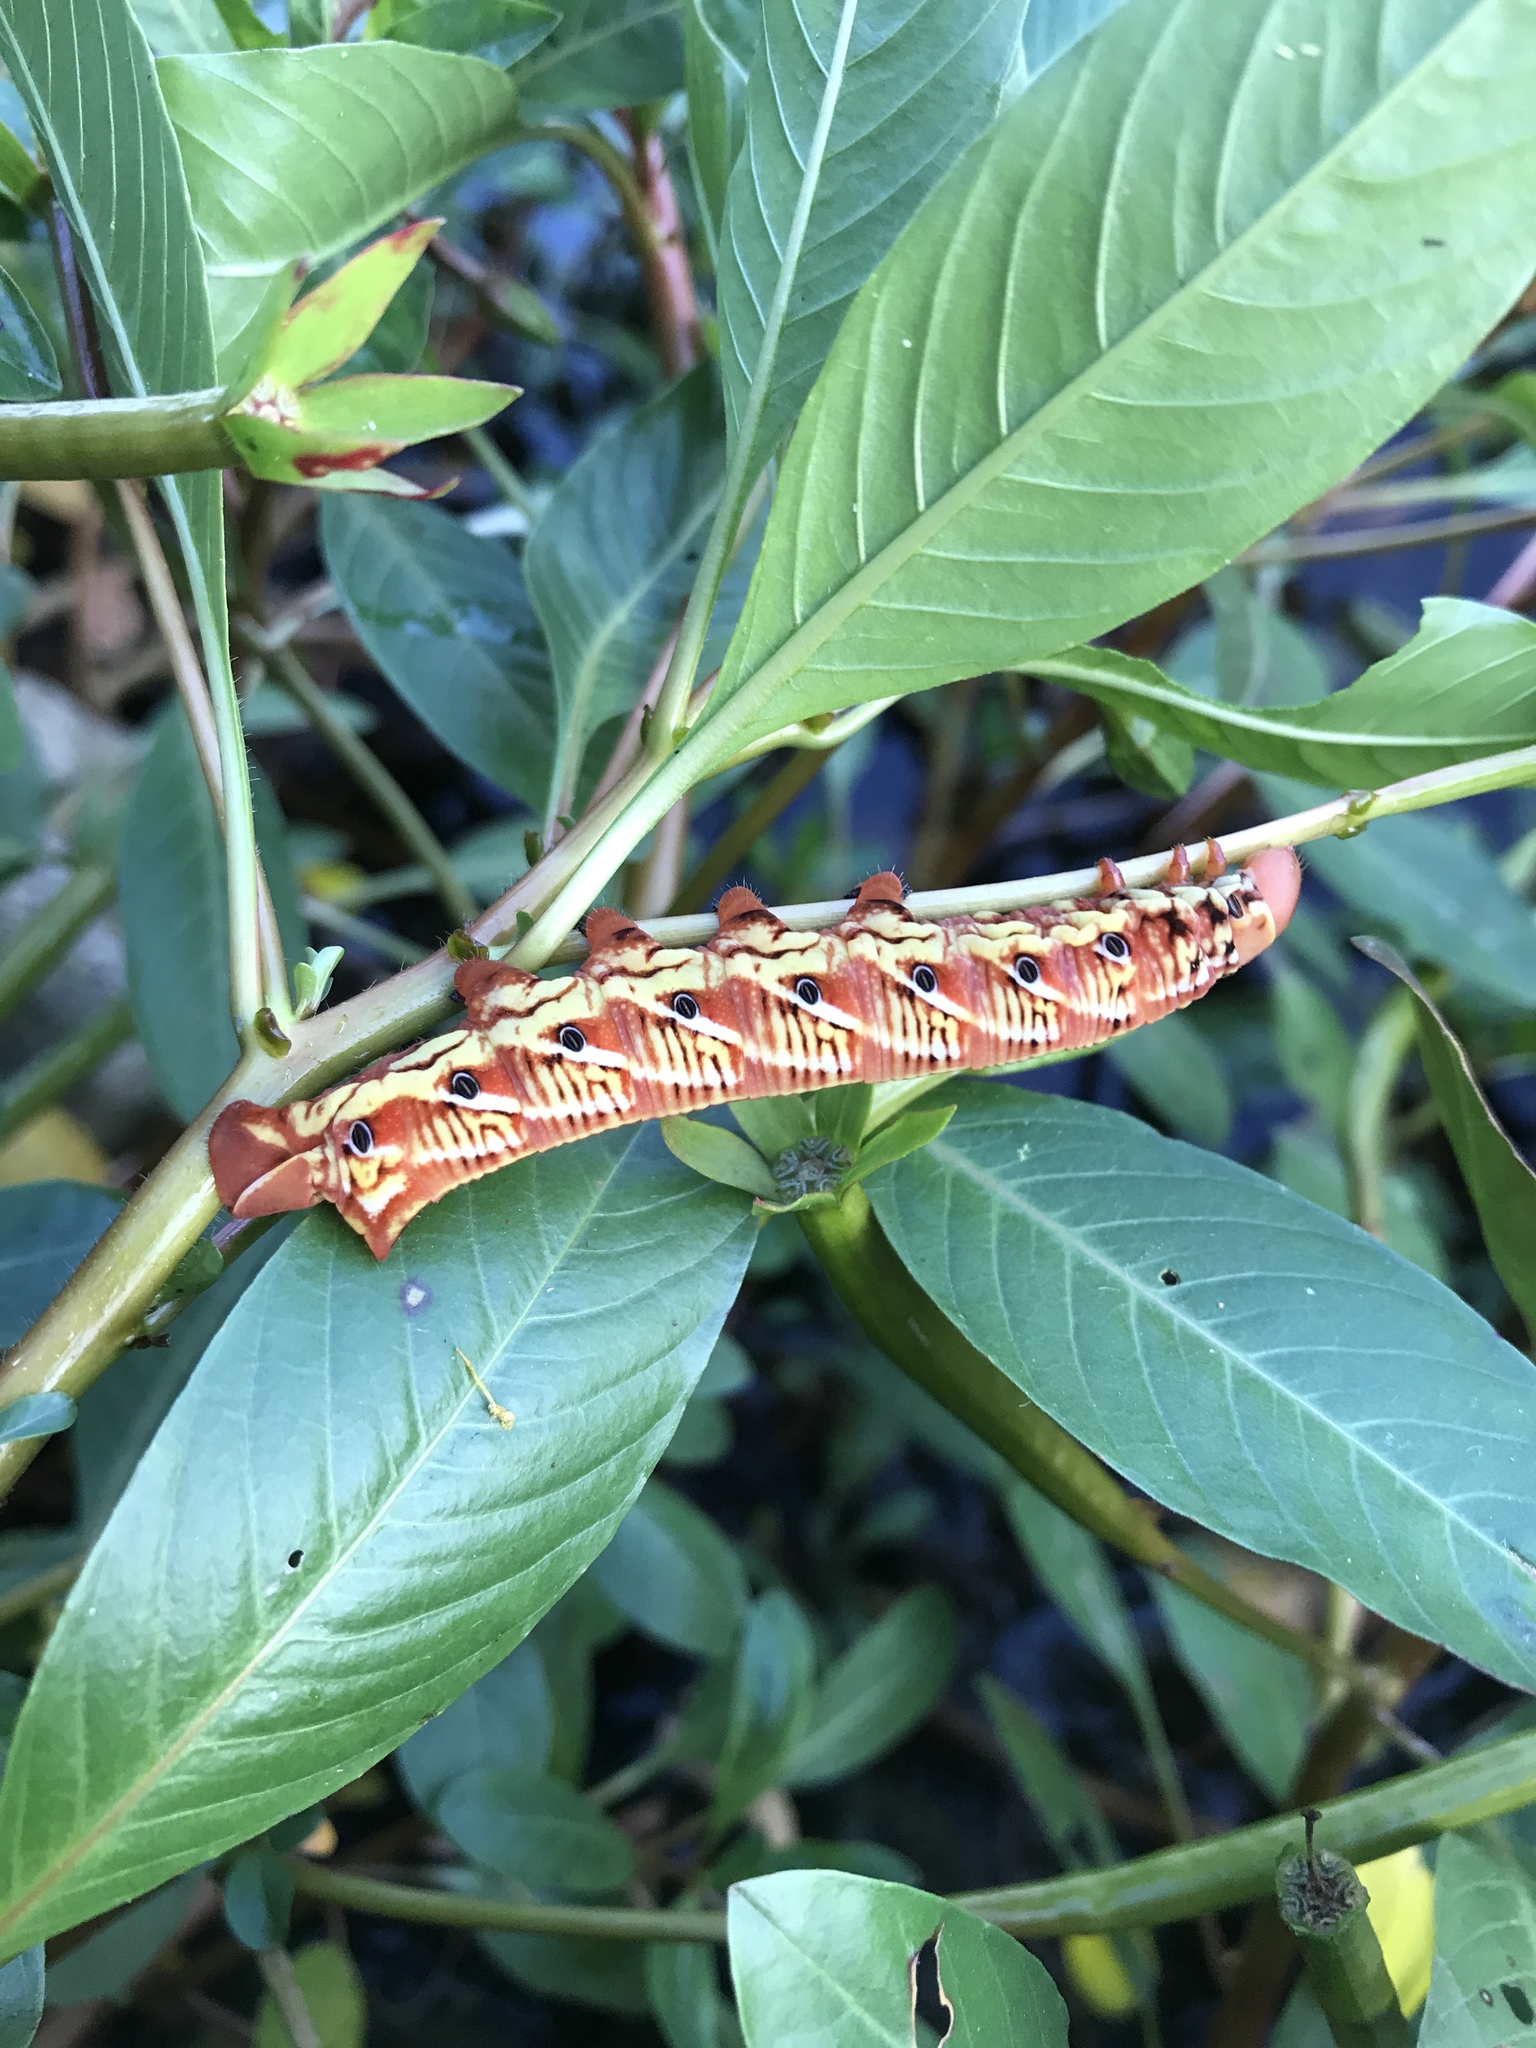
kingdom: Animalia
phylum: Arthropoda
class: Insecta
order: Lepidoptera
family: Sphingidae
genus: Eumorpha
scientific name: Eumorpha fasciatus
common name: Banded sphinx
